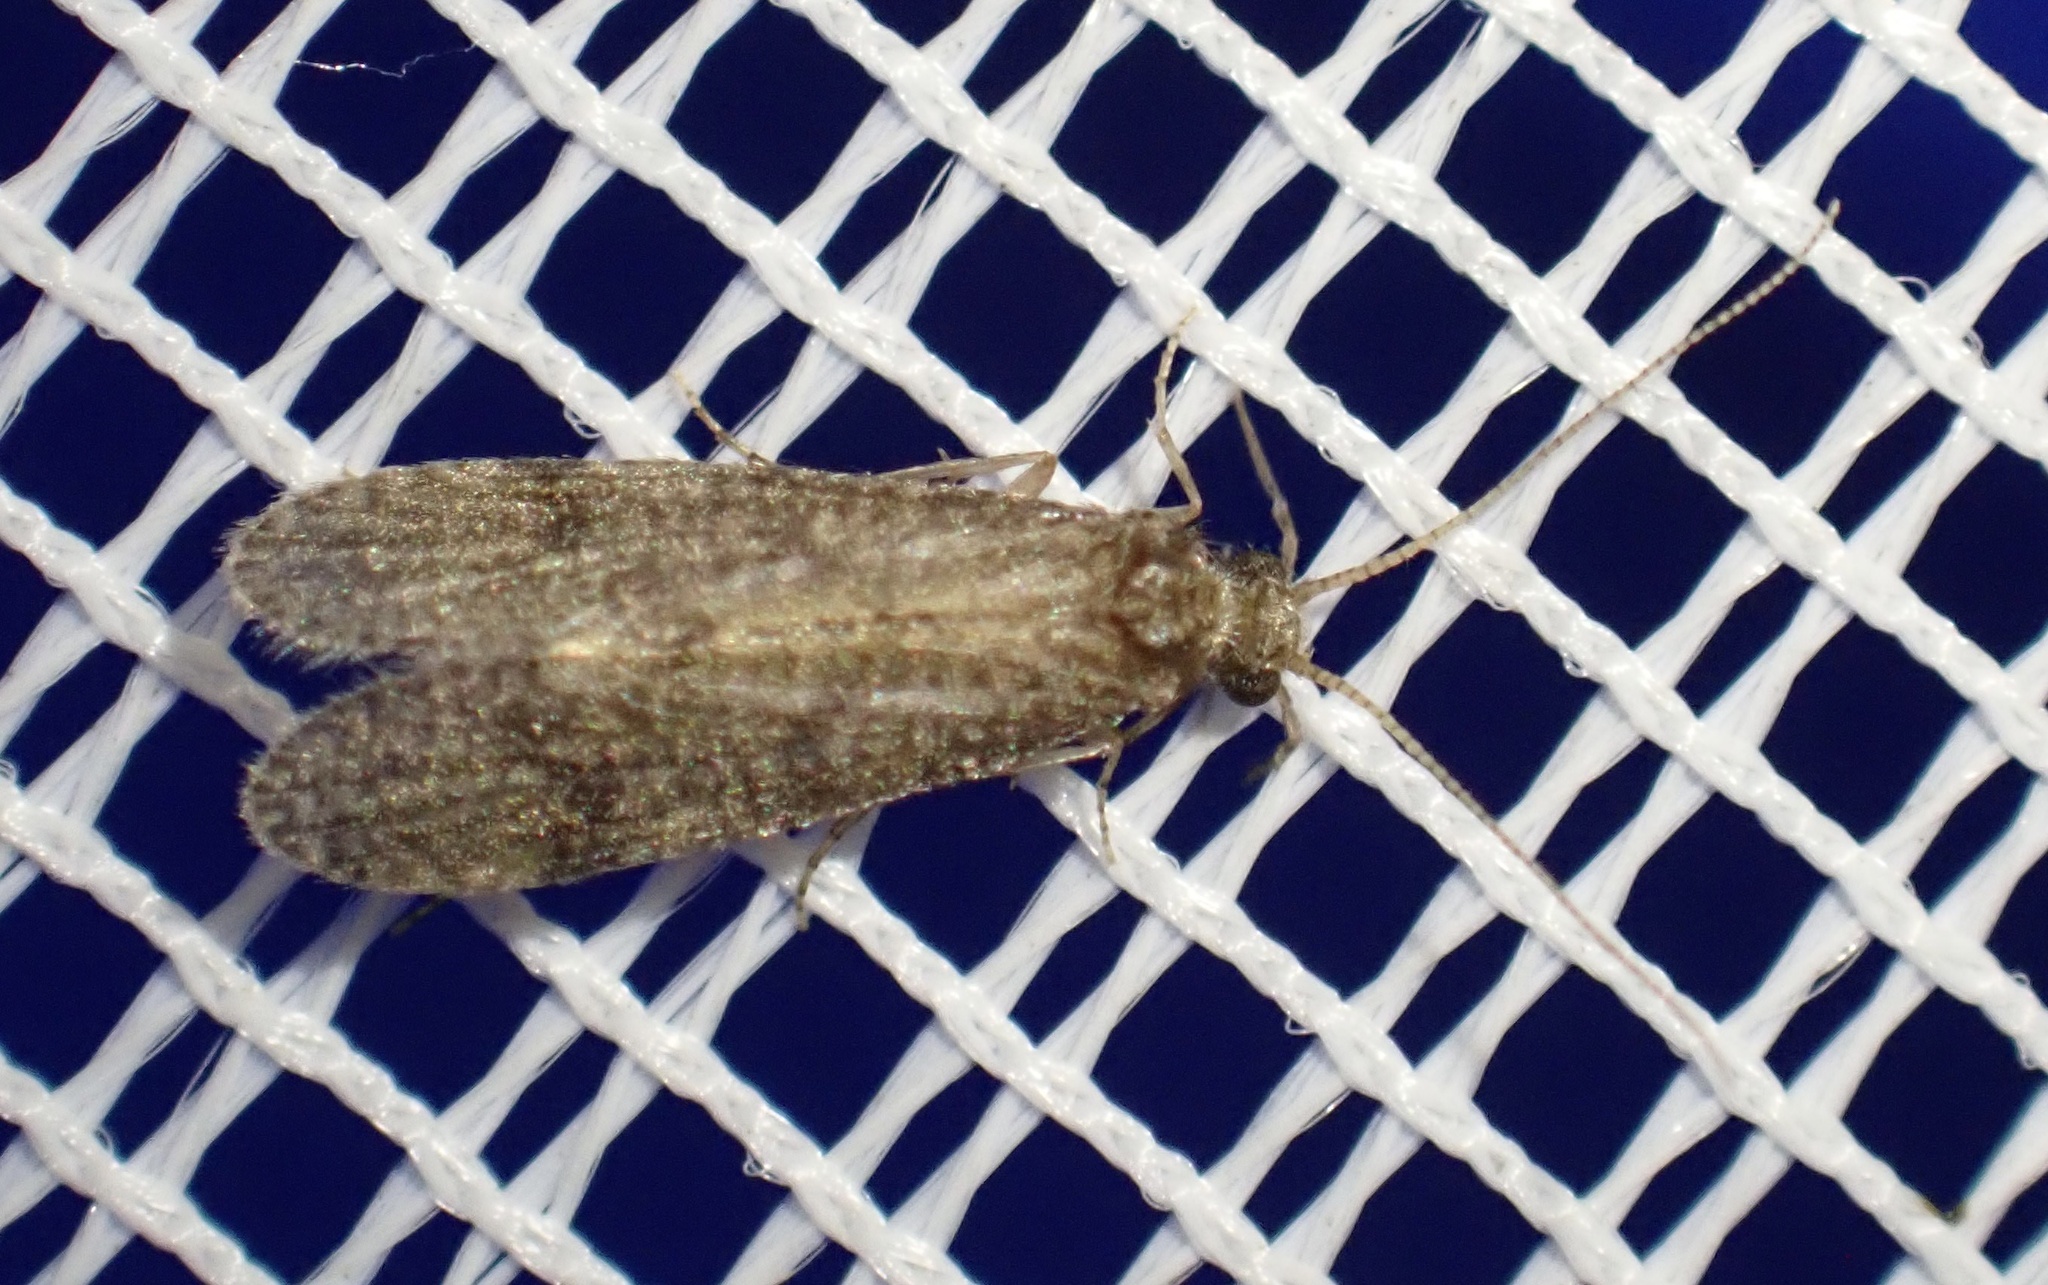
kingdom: Animalia
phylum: Arthropoda
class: Insecta
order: Trichoptera
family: Ecnomidae
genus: Ecnomus
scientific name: Ecnomus tenellus
